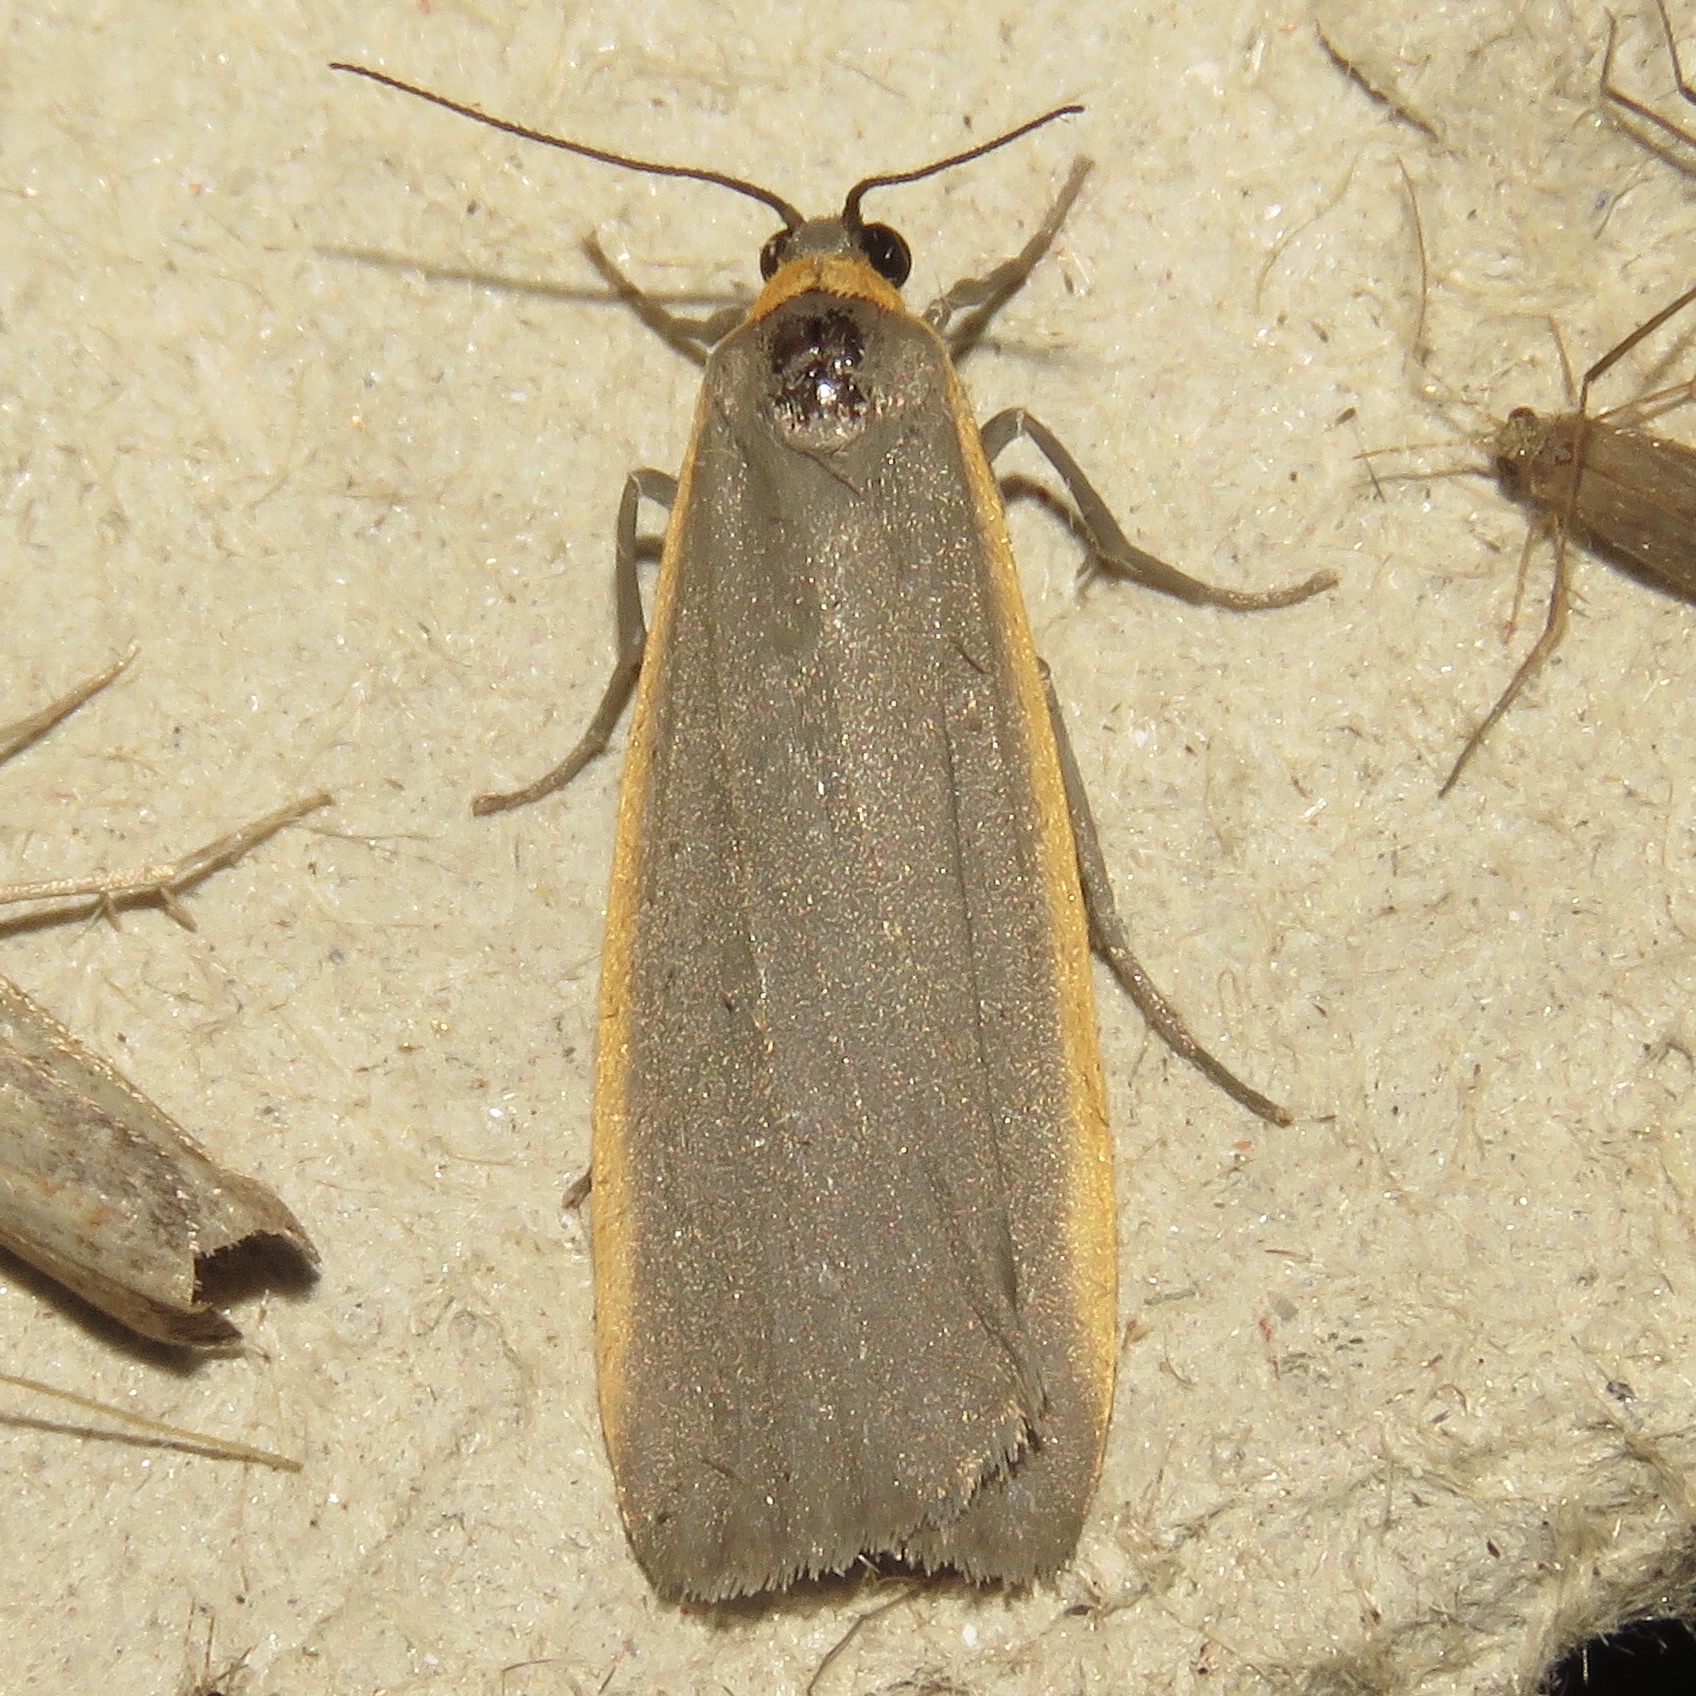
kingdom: Animalia
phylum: Arthropoda
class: Insecta
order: Lepidoptera
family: Erebidae
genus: Manulea
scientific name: Manulea bicolor
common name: Bicolored moth
